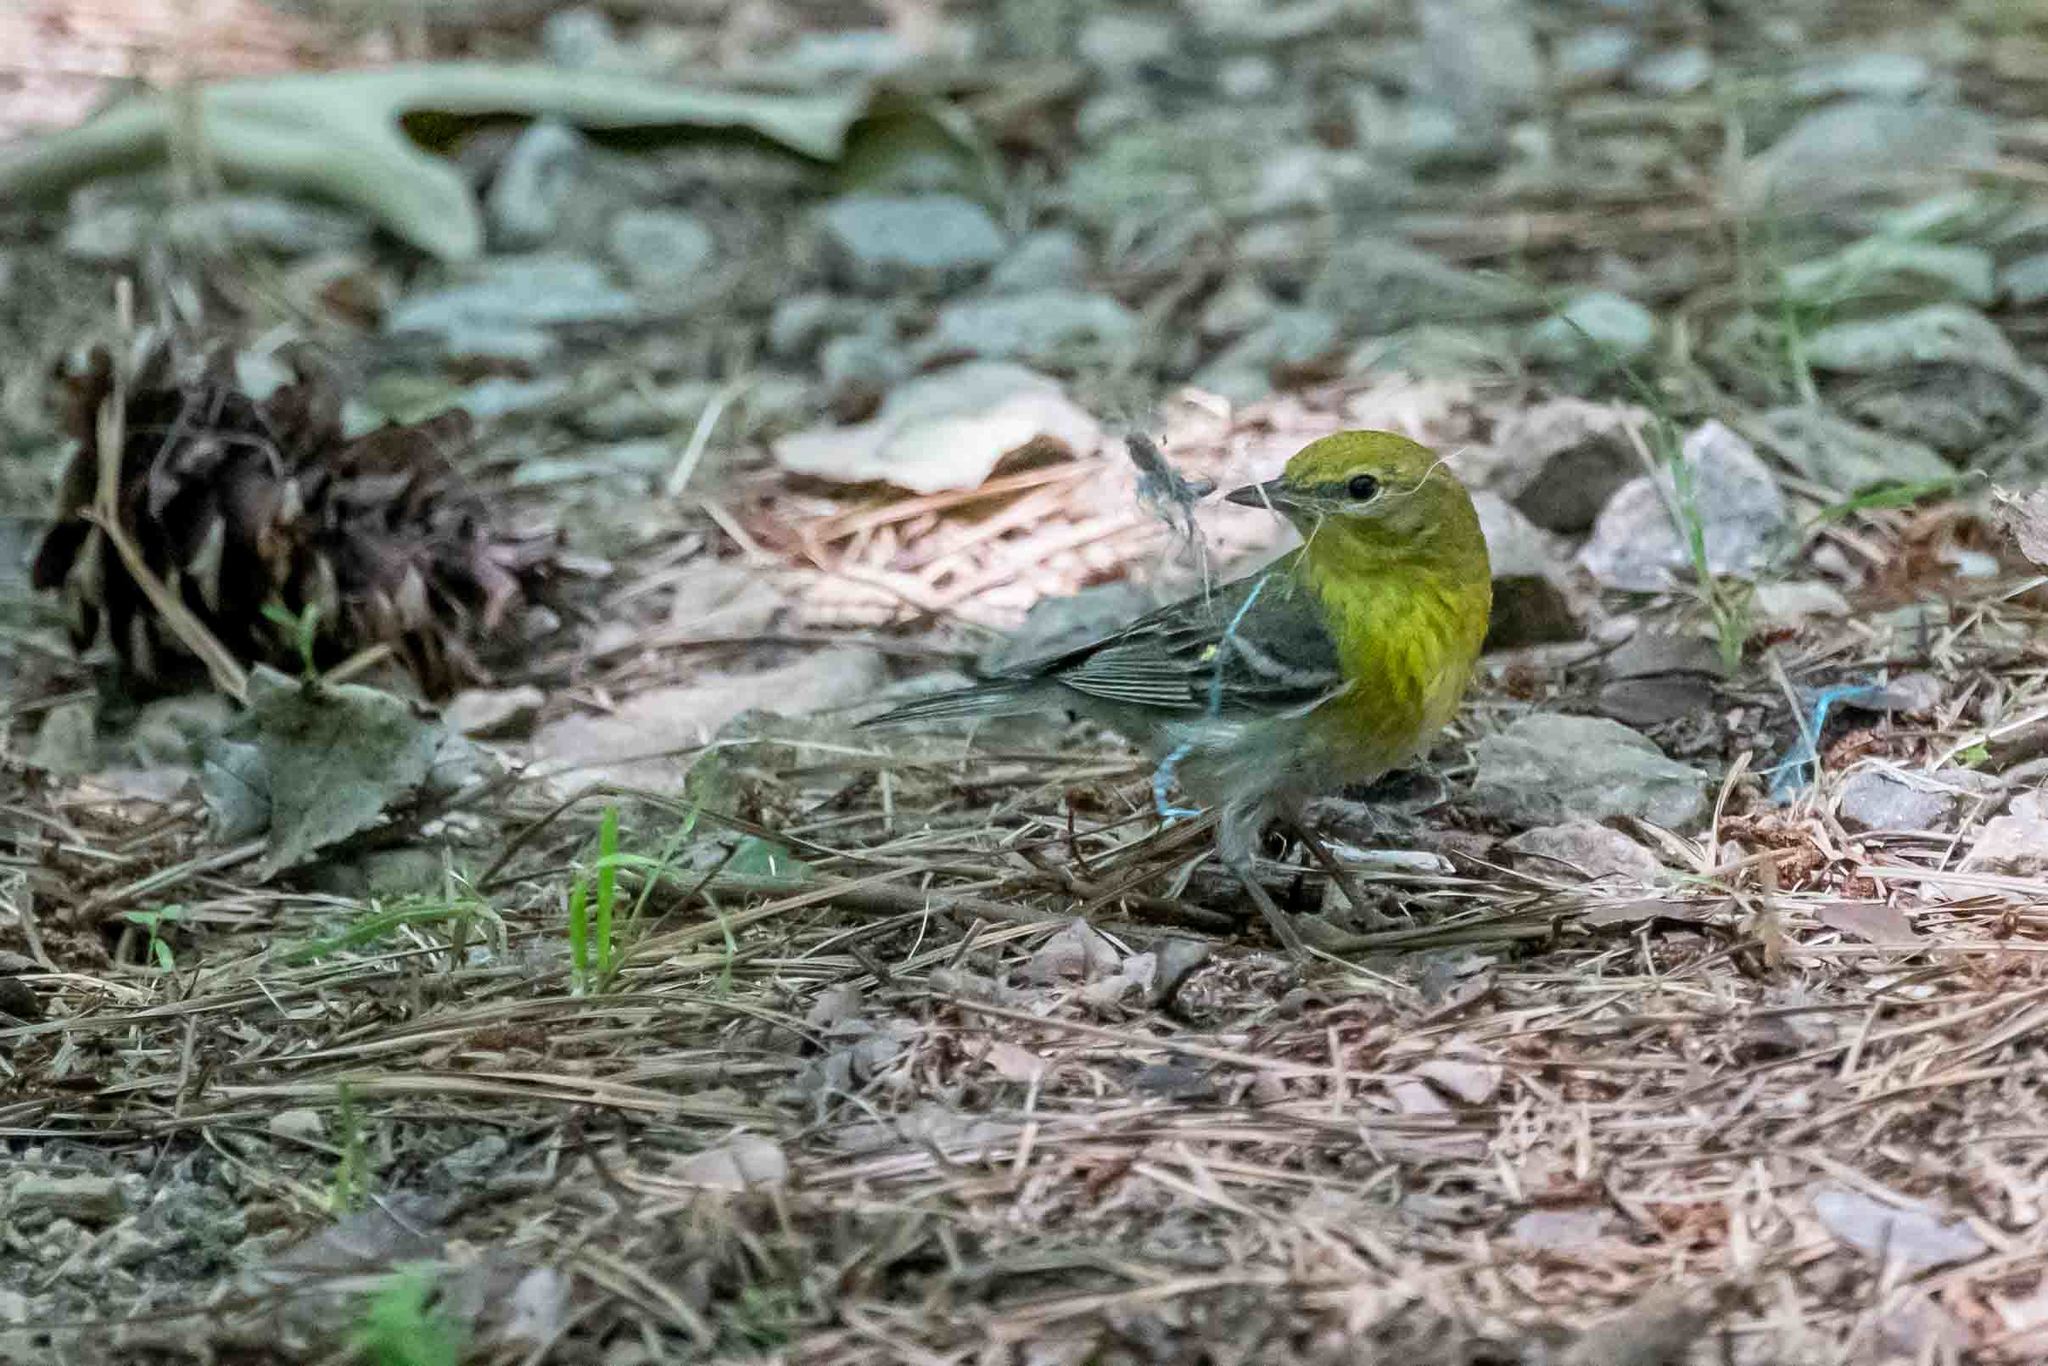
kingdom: Animalia
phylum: Chordata
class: Aves
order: Passeriformes
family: Parulidae
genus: Setophaga
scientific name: Setophaga pinus
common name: Pine warbler
